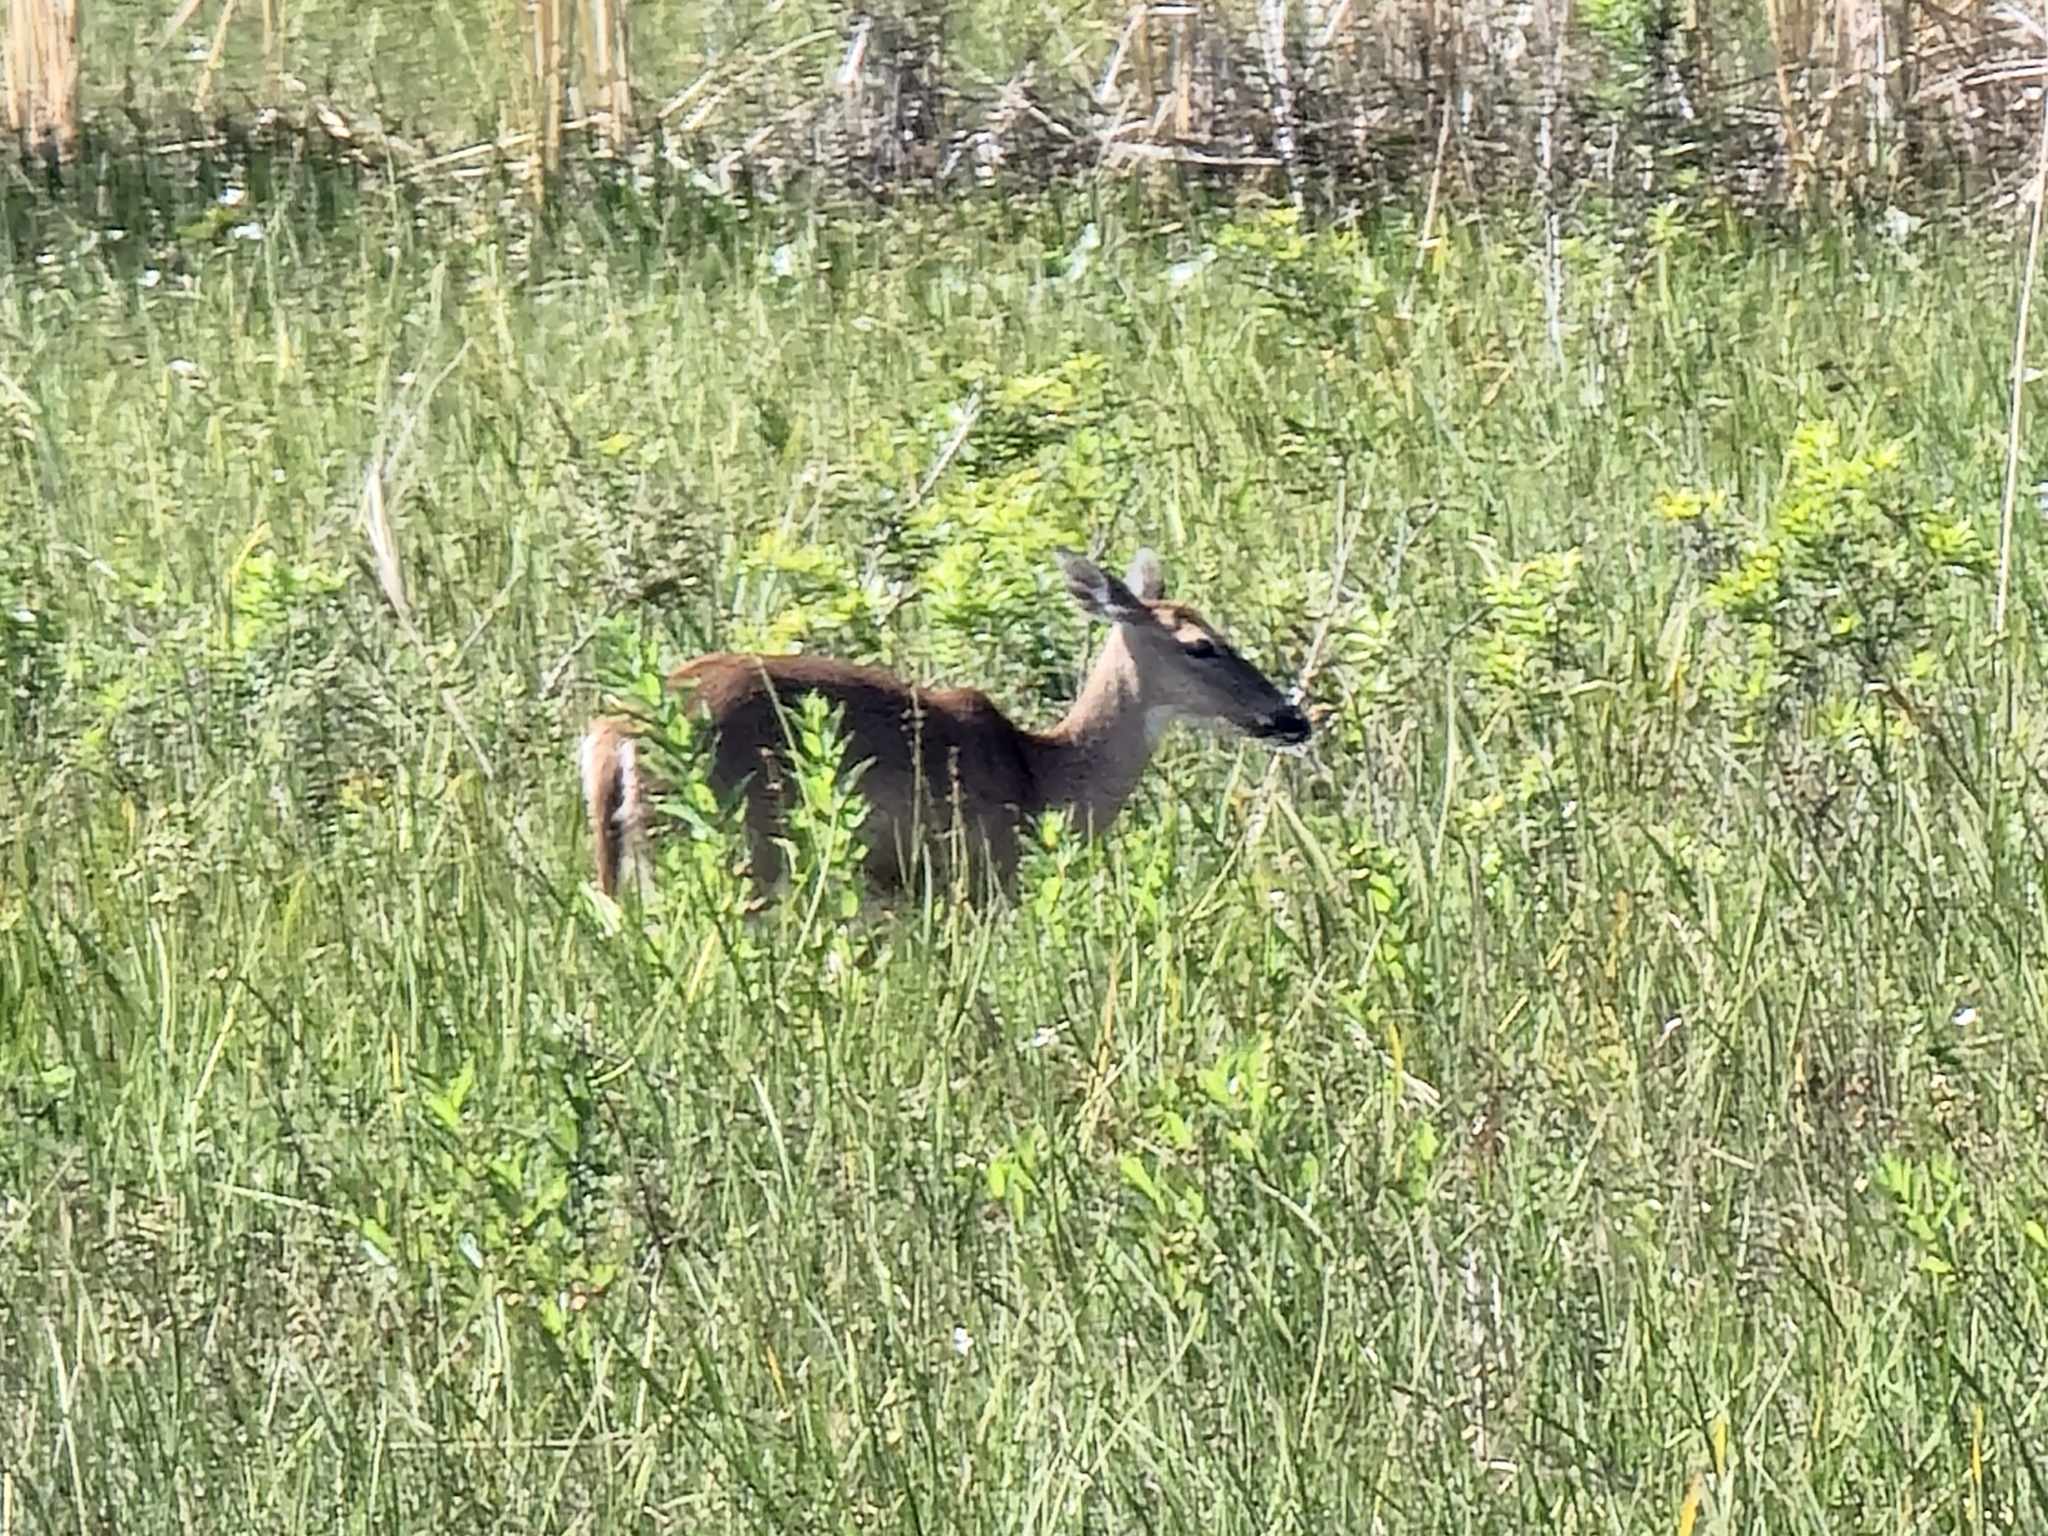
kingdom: Animalia
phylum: Chordata
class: Mammalia
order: Artiodactyla
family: Cervidae
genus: Odocoileus
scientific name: Odocoileus virginianus
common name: White-tailed deer
